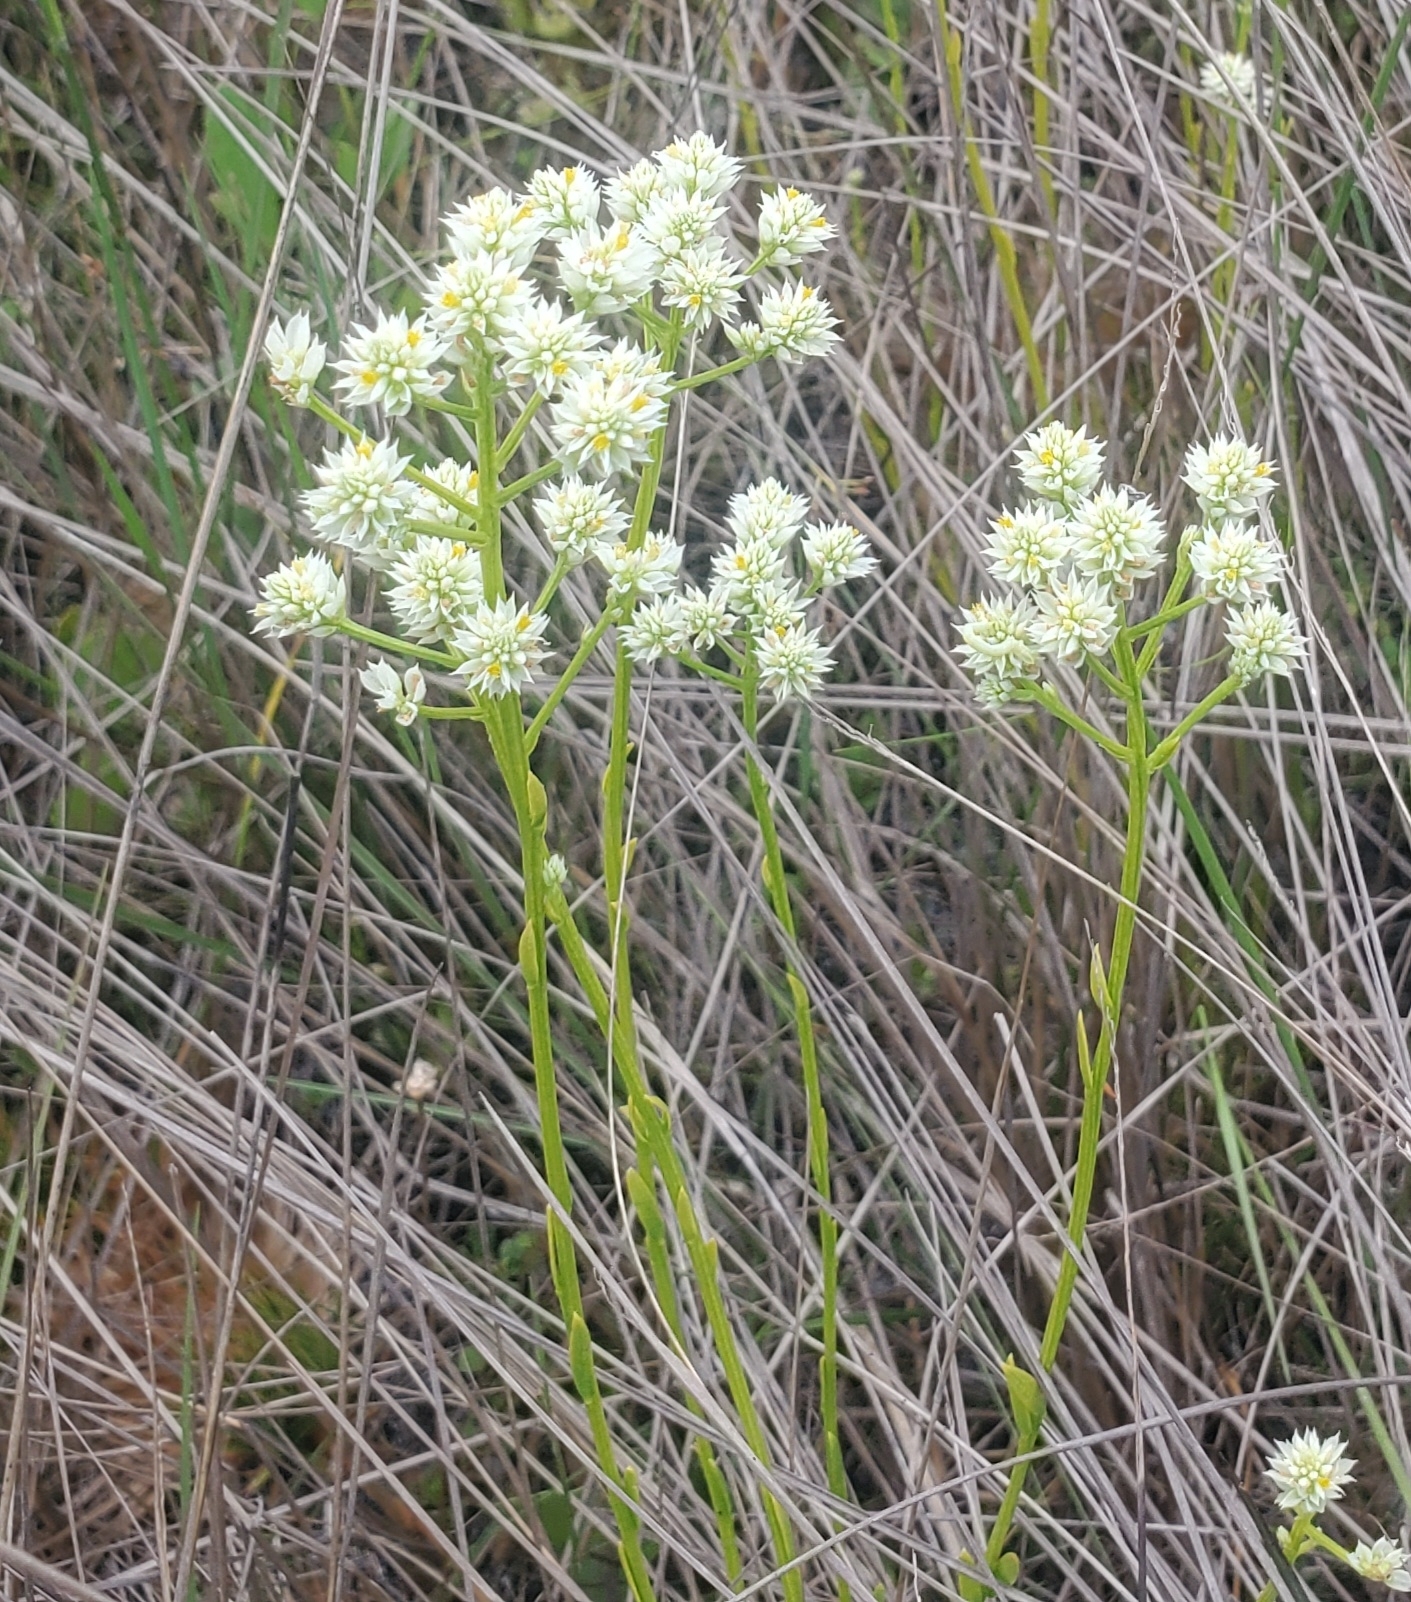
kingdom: Plantae
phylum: Tracheophyta
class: Magnoliopsida
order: Fabales
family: Polygalaceae
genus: Polygala
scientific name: Polygala baldwinii
